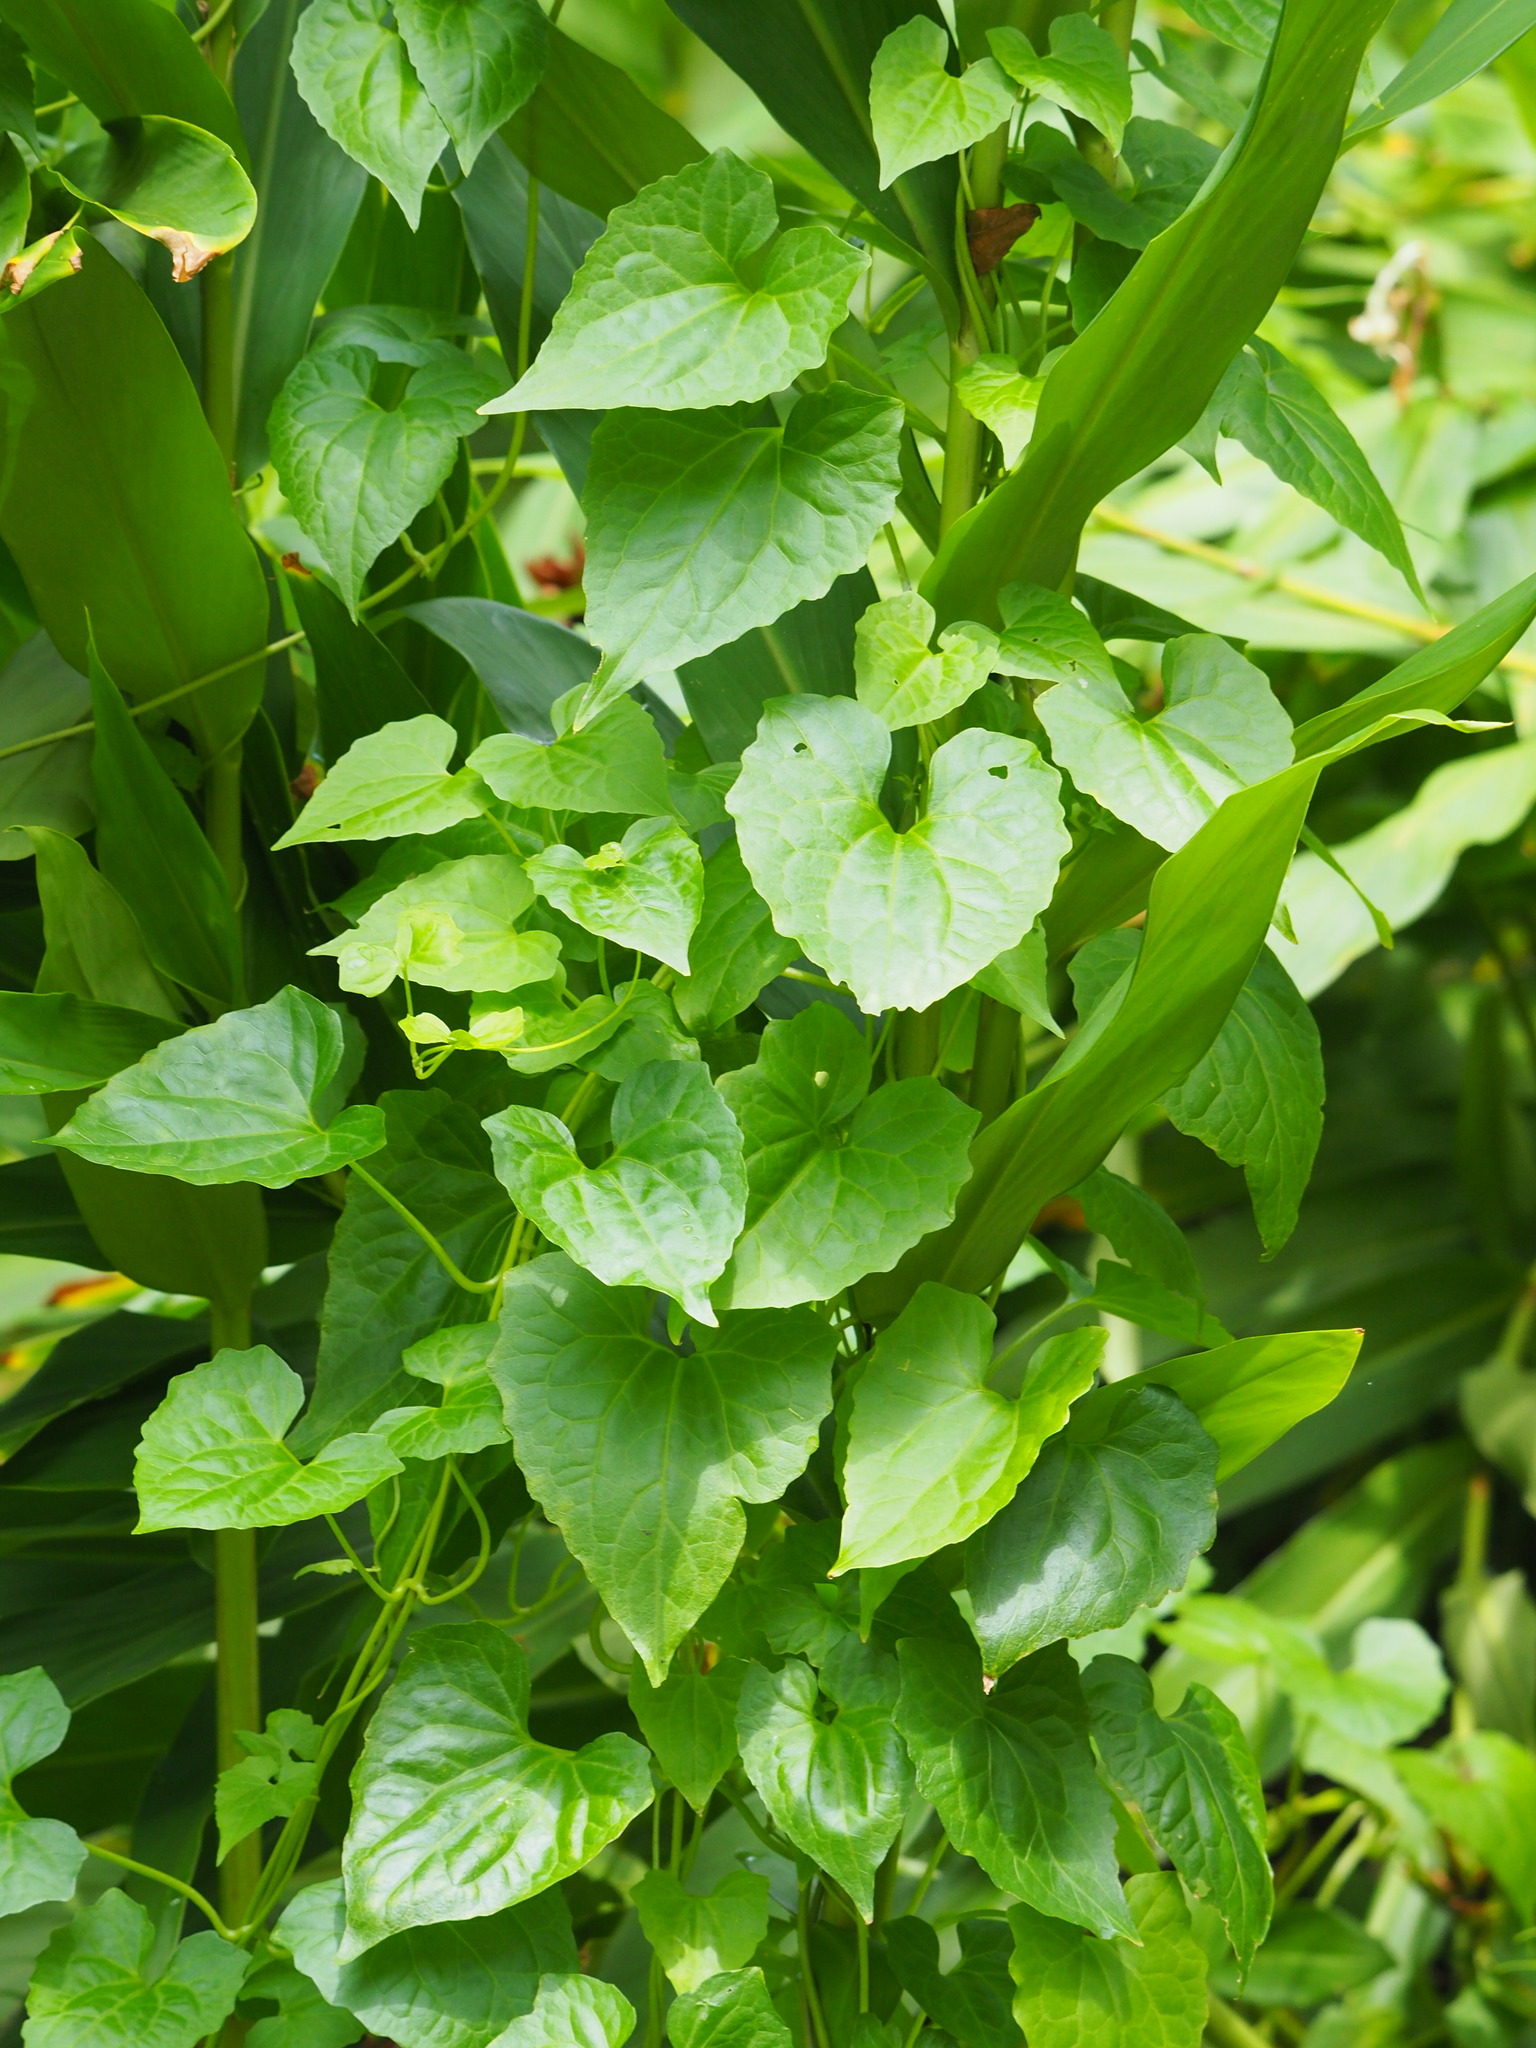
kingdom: Plantae
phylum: Tracheophyta
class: Magnoliopsida
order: Asterales
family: Asteraceae
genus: Mikania
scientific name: Mikania micrantha
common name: Mile-a-minute
